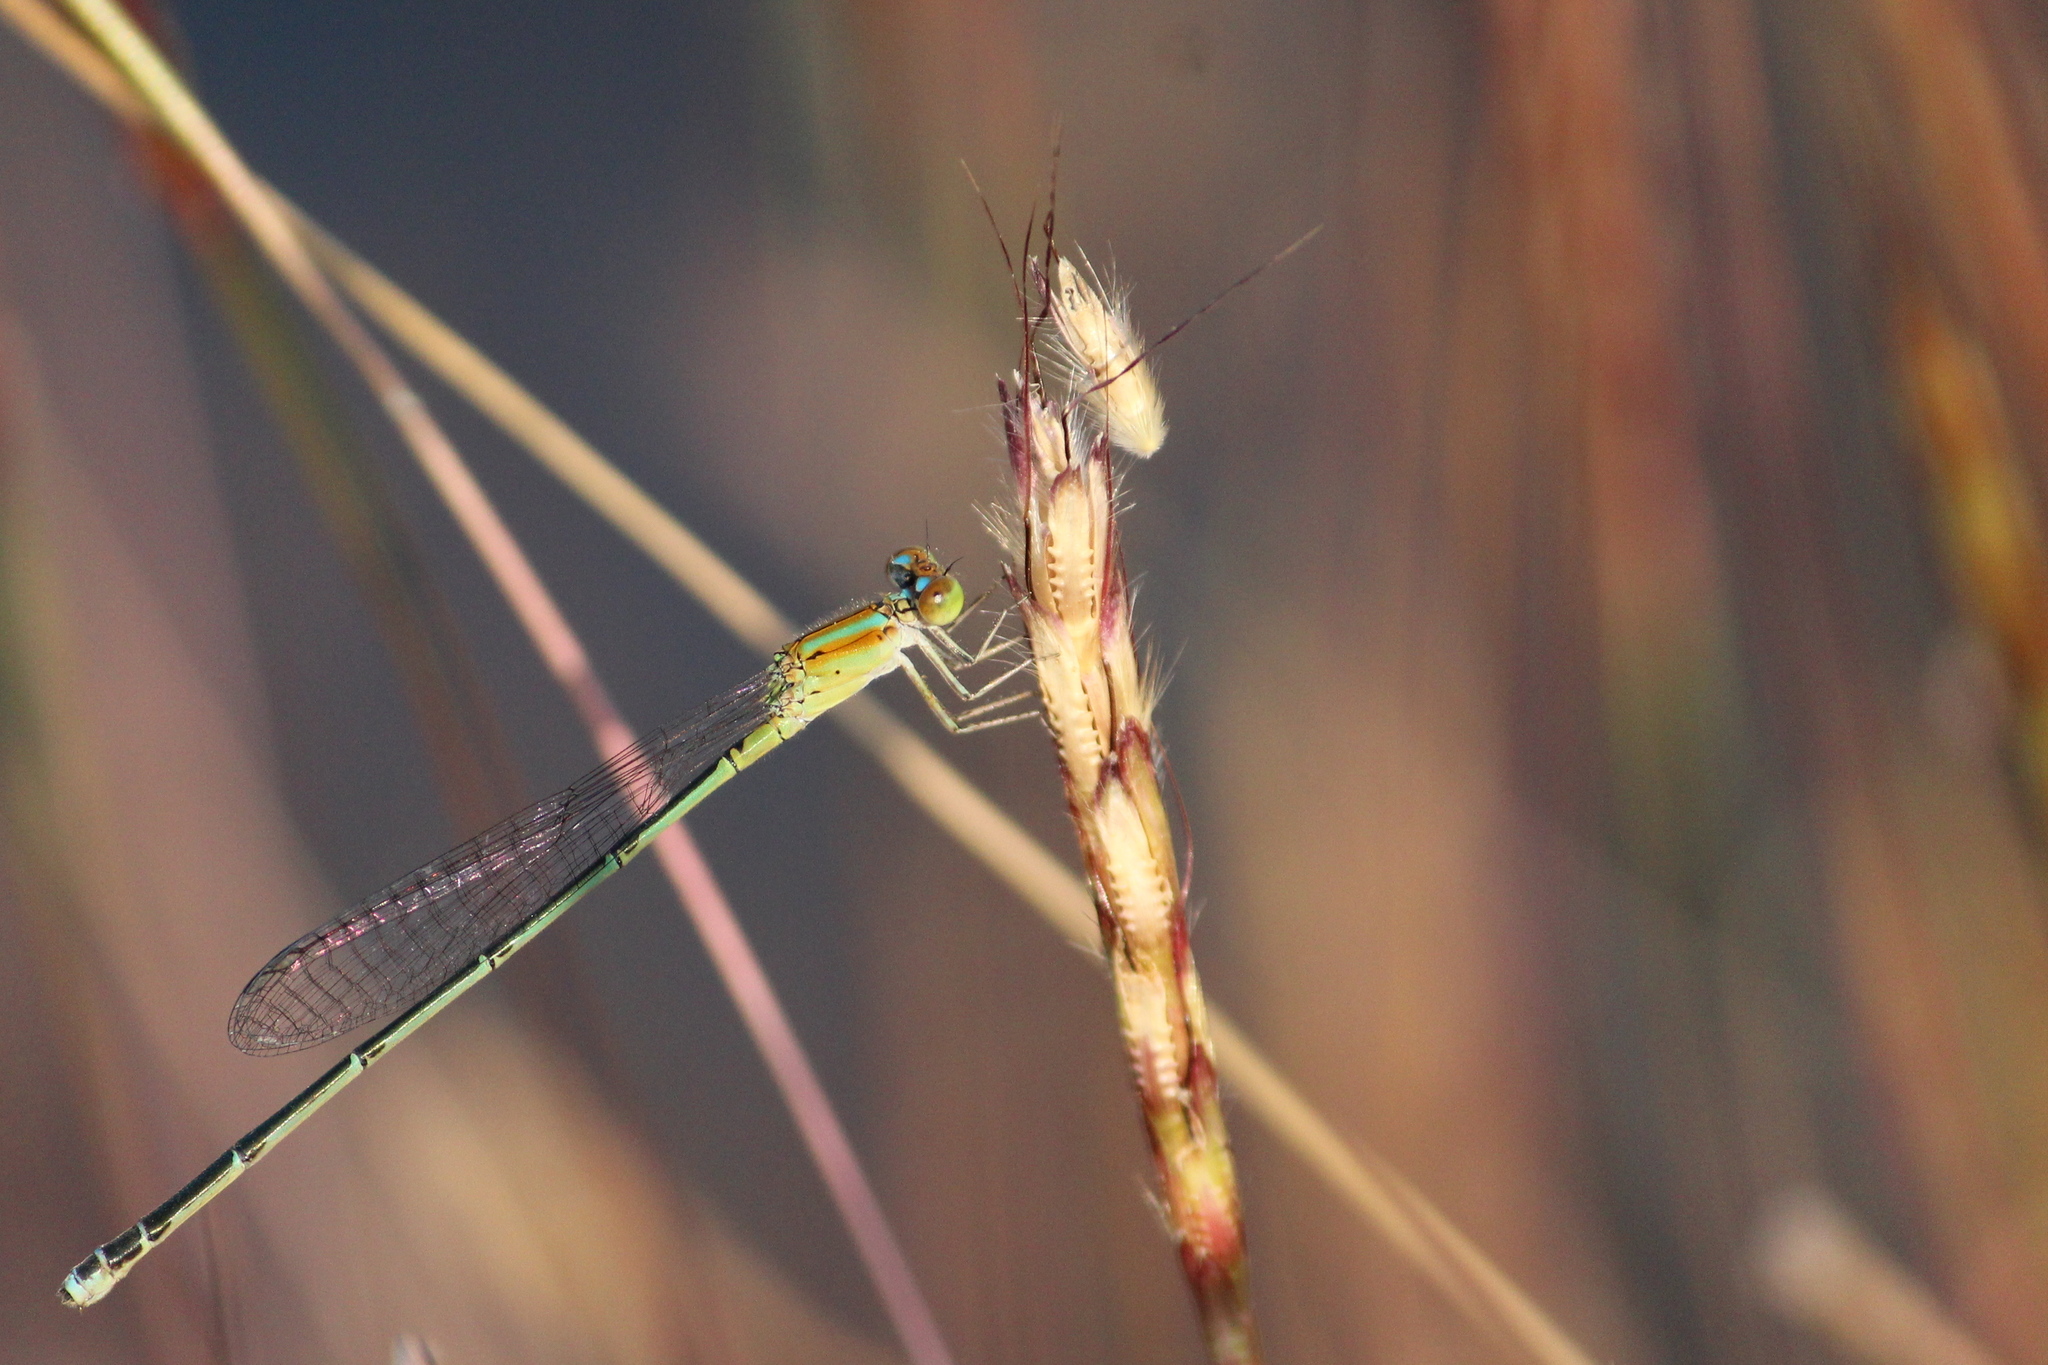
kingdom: Animalia
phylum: Arthropoda
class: Insecta
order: Odonata
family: Coenagrionidae
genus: Pseudagrion
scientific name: Pseudagrion microcephalum
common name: Blue riverdamsel
